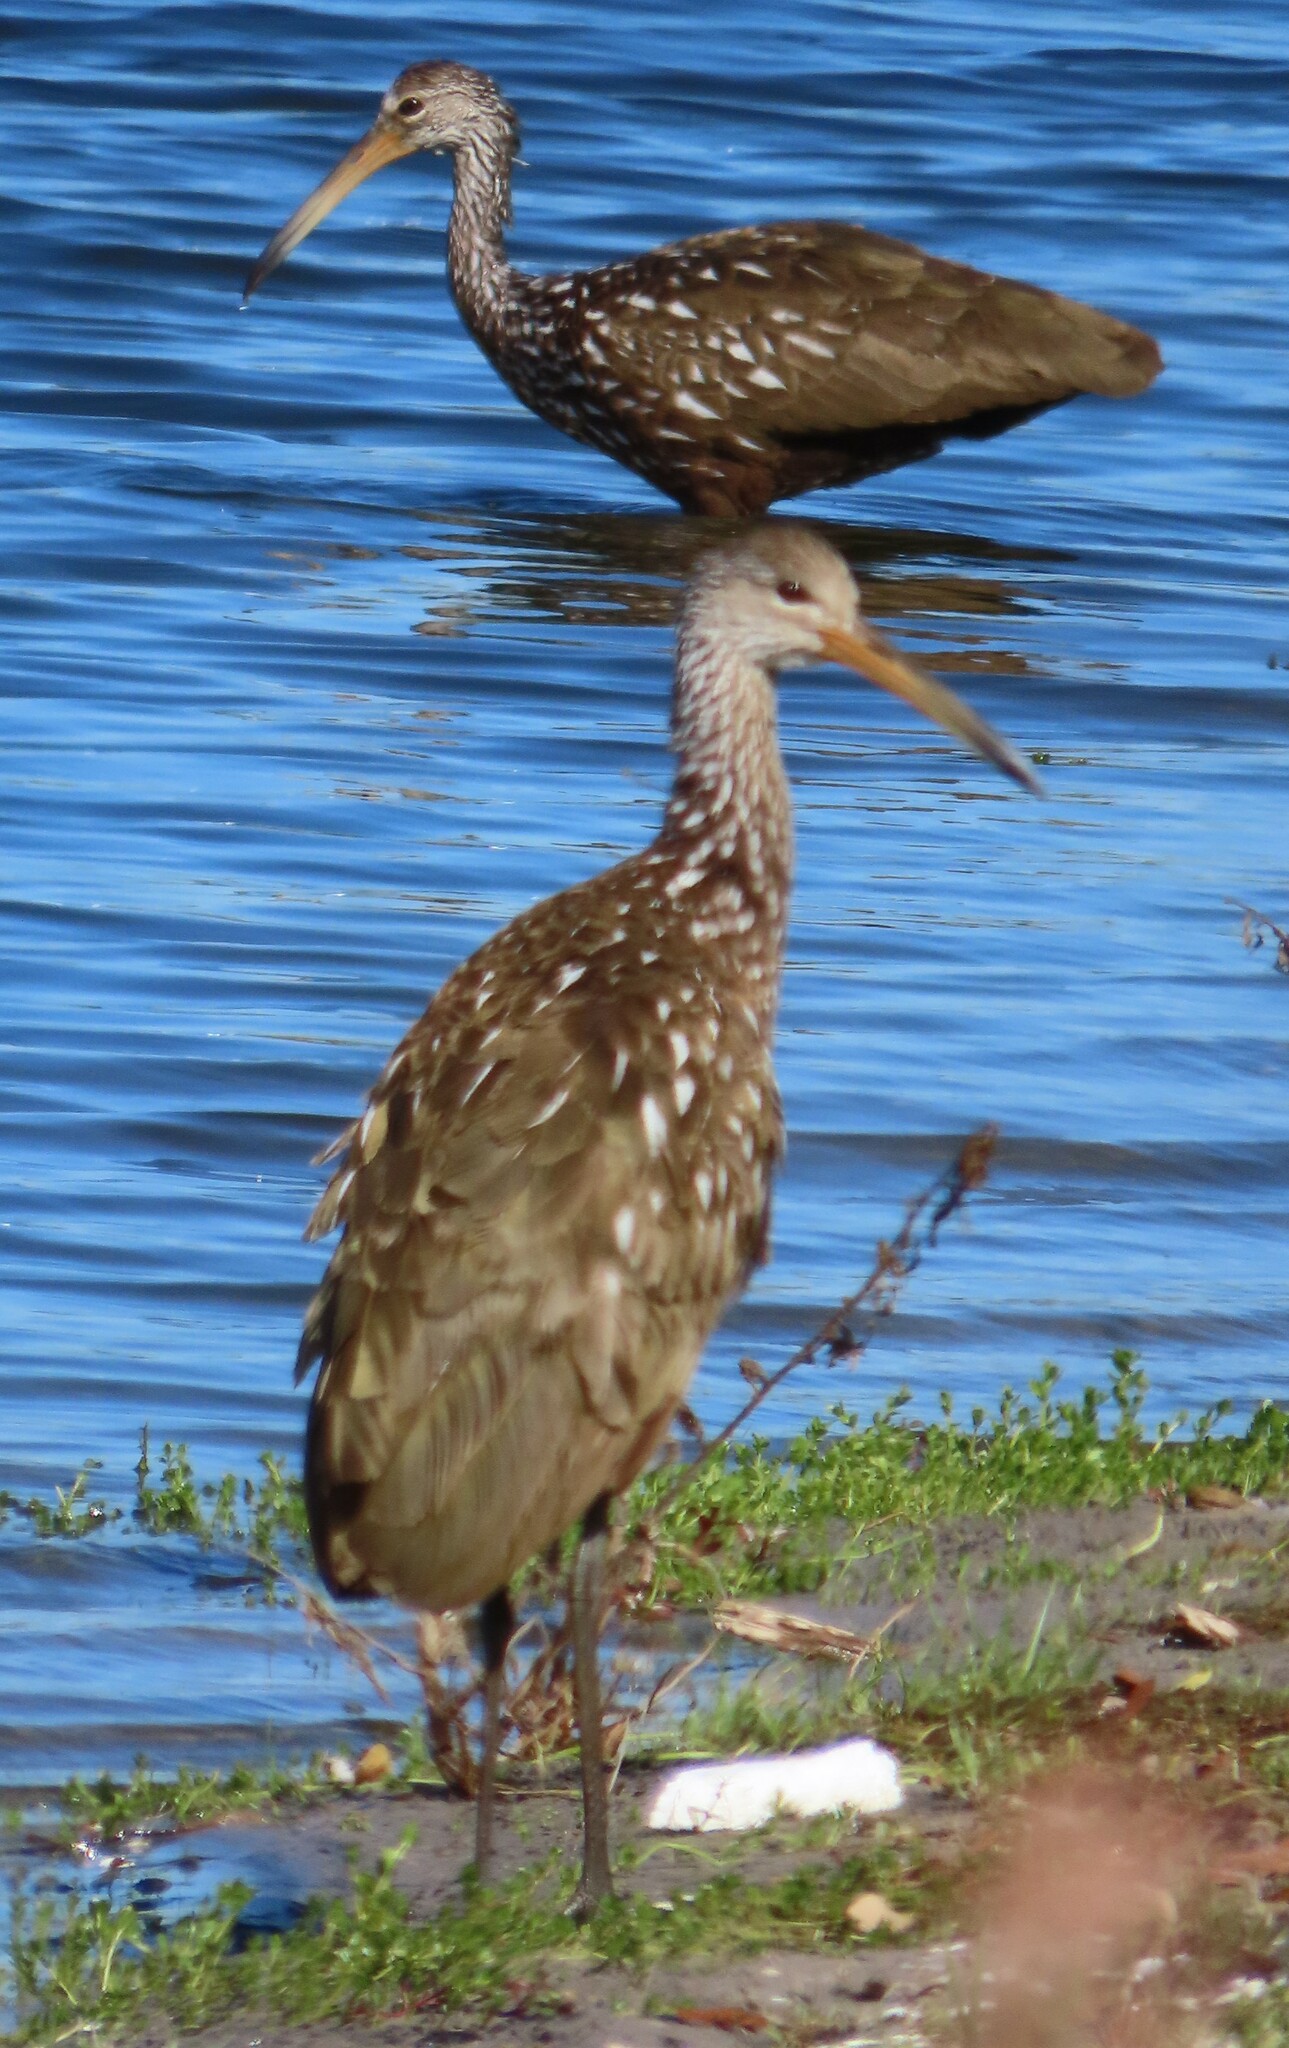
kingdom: Animalia
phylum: Chordata
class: Aves
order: Gruiformes
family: Aramidae
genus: Aramus
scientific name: Aramus guarauna
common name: Limpkin
